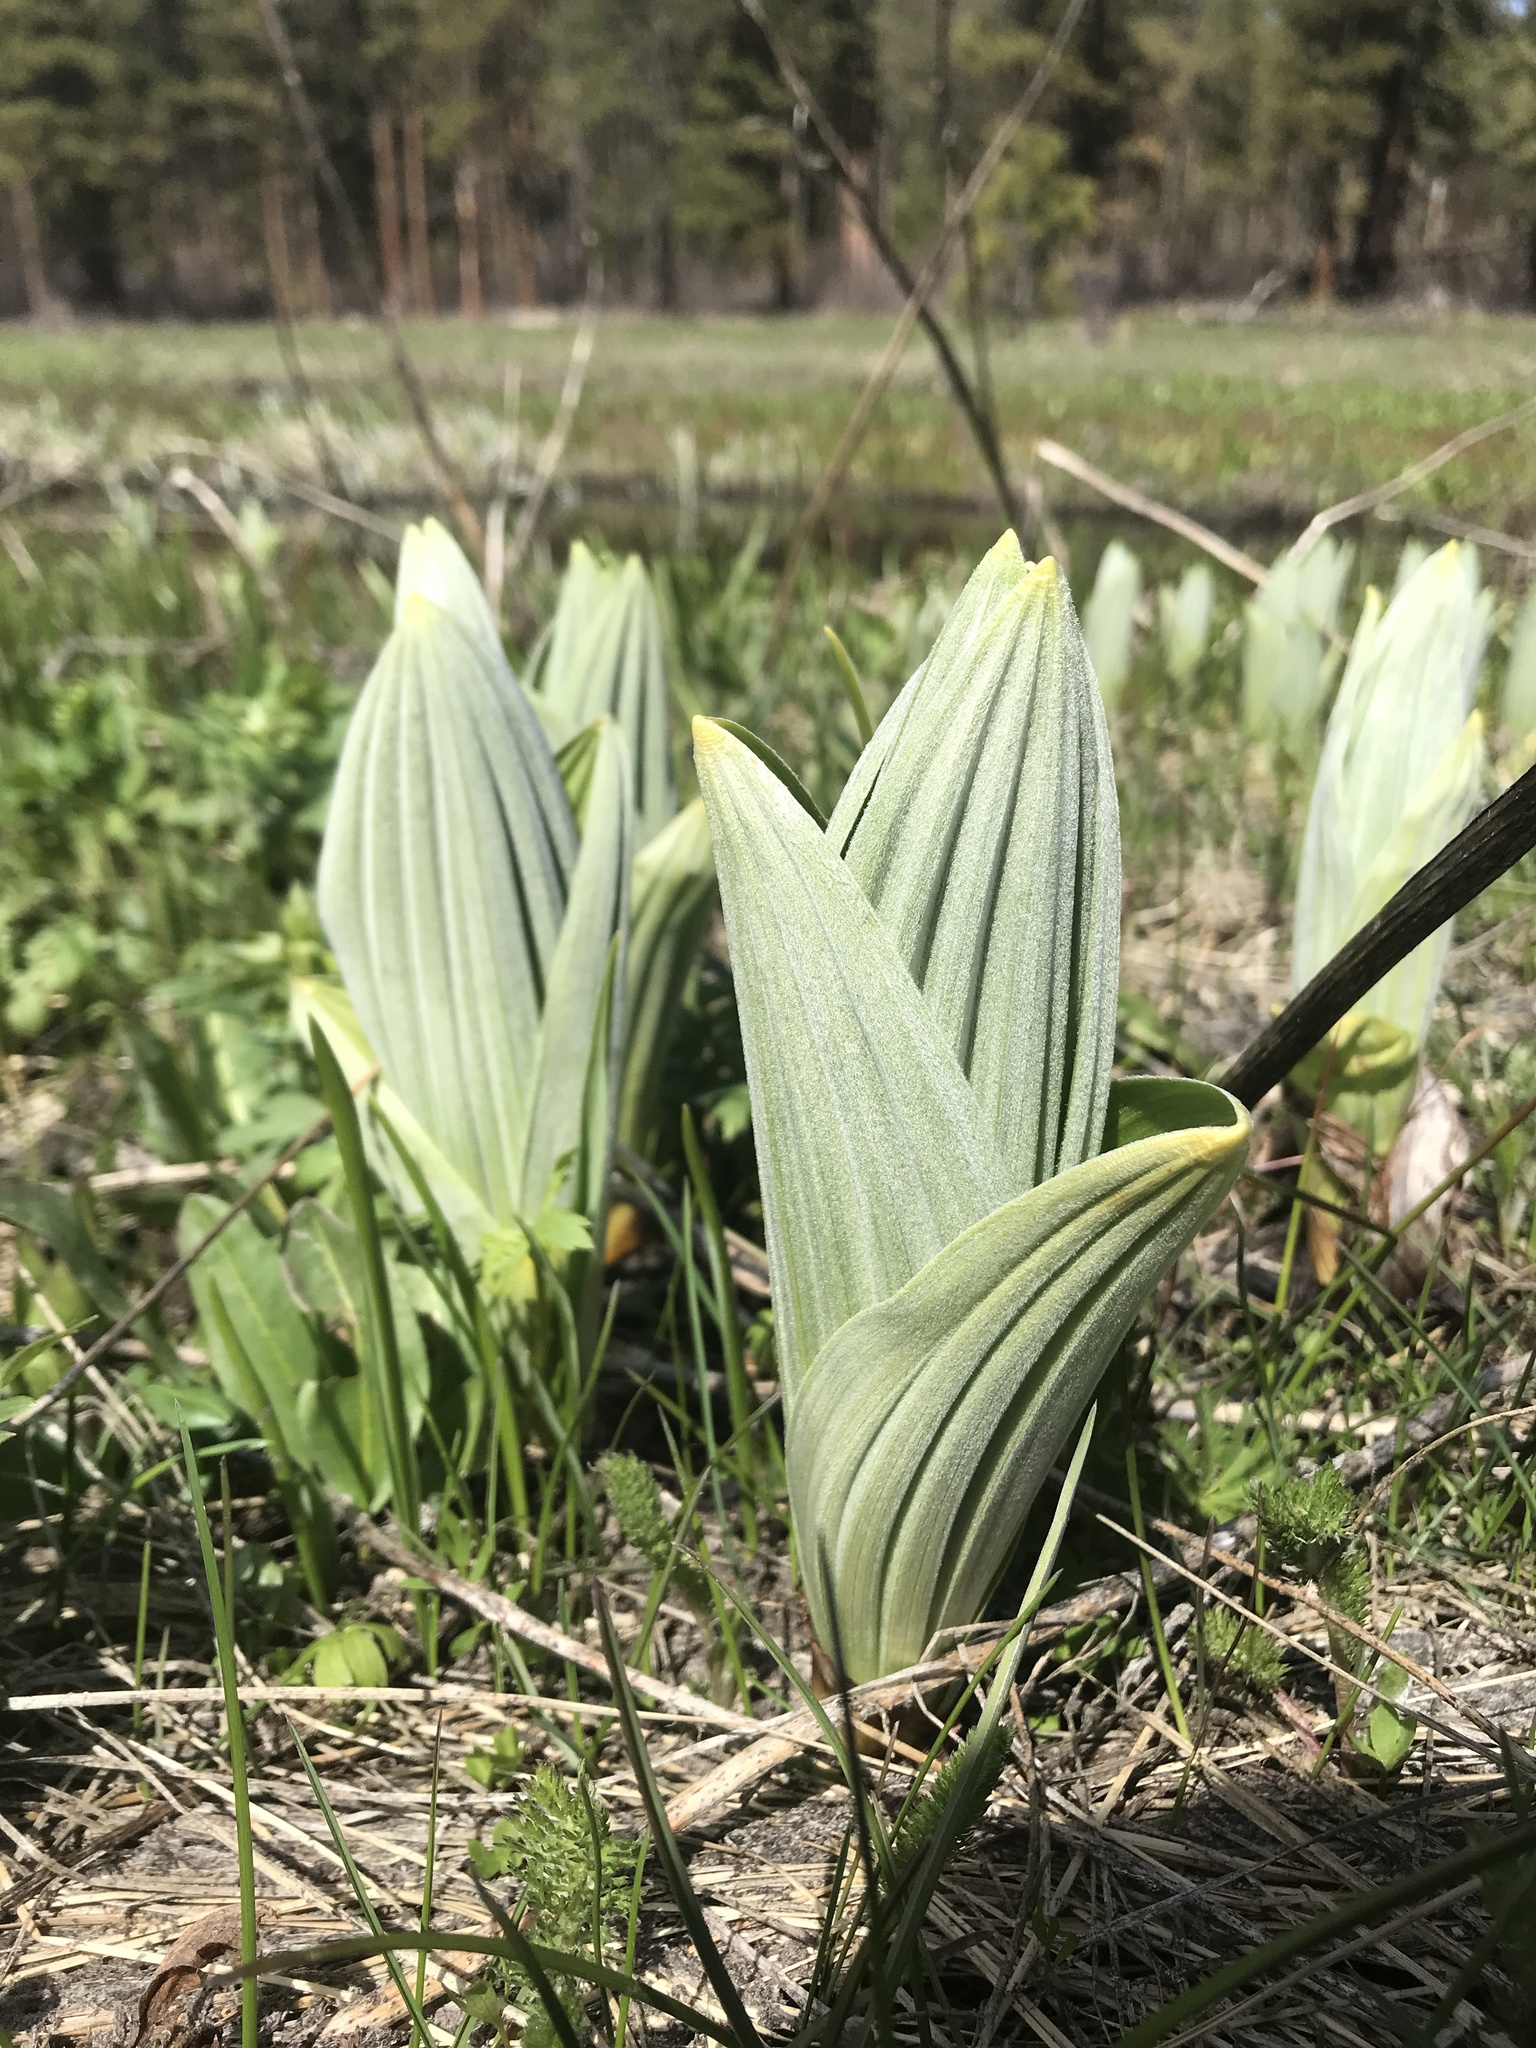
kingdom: Plantae
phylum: Tracheophyta
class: Liliopsida
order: Liliales
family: Melanthiaceae
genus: Veratrum
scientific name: Veratrum californicum
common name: California veratrum
